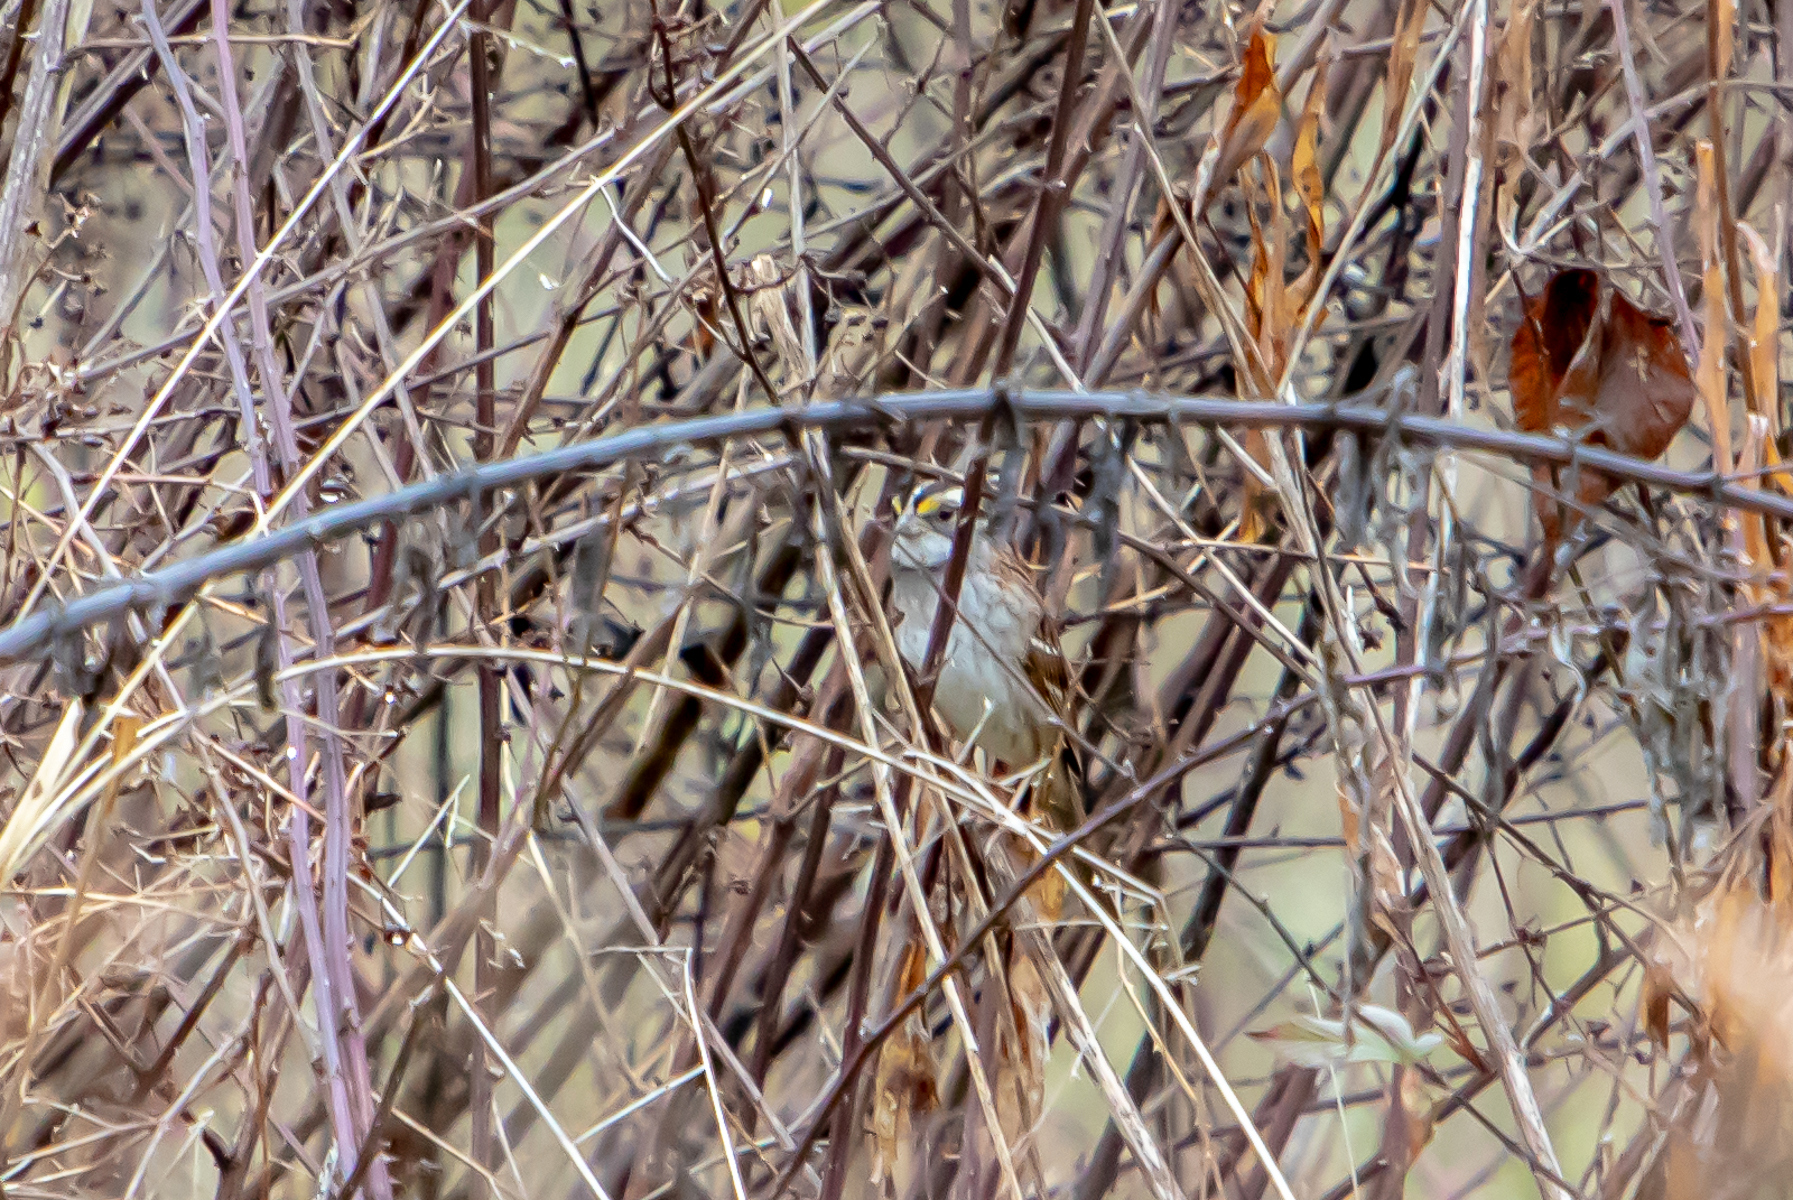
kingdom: Animalia
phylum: Chordata
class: Aves
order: Passeriformes
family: Passerellidae
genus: Zonotrichia
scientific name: Zonotrichia albicollis
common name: White-throated sparrow
